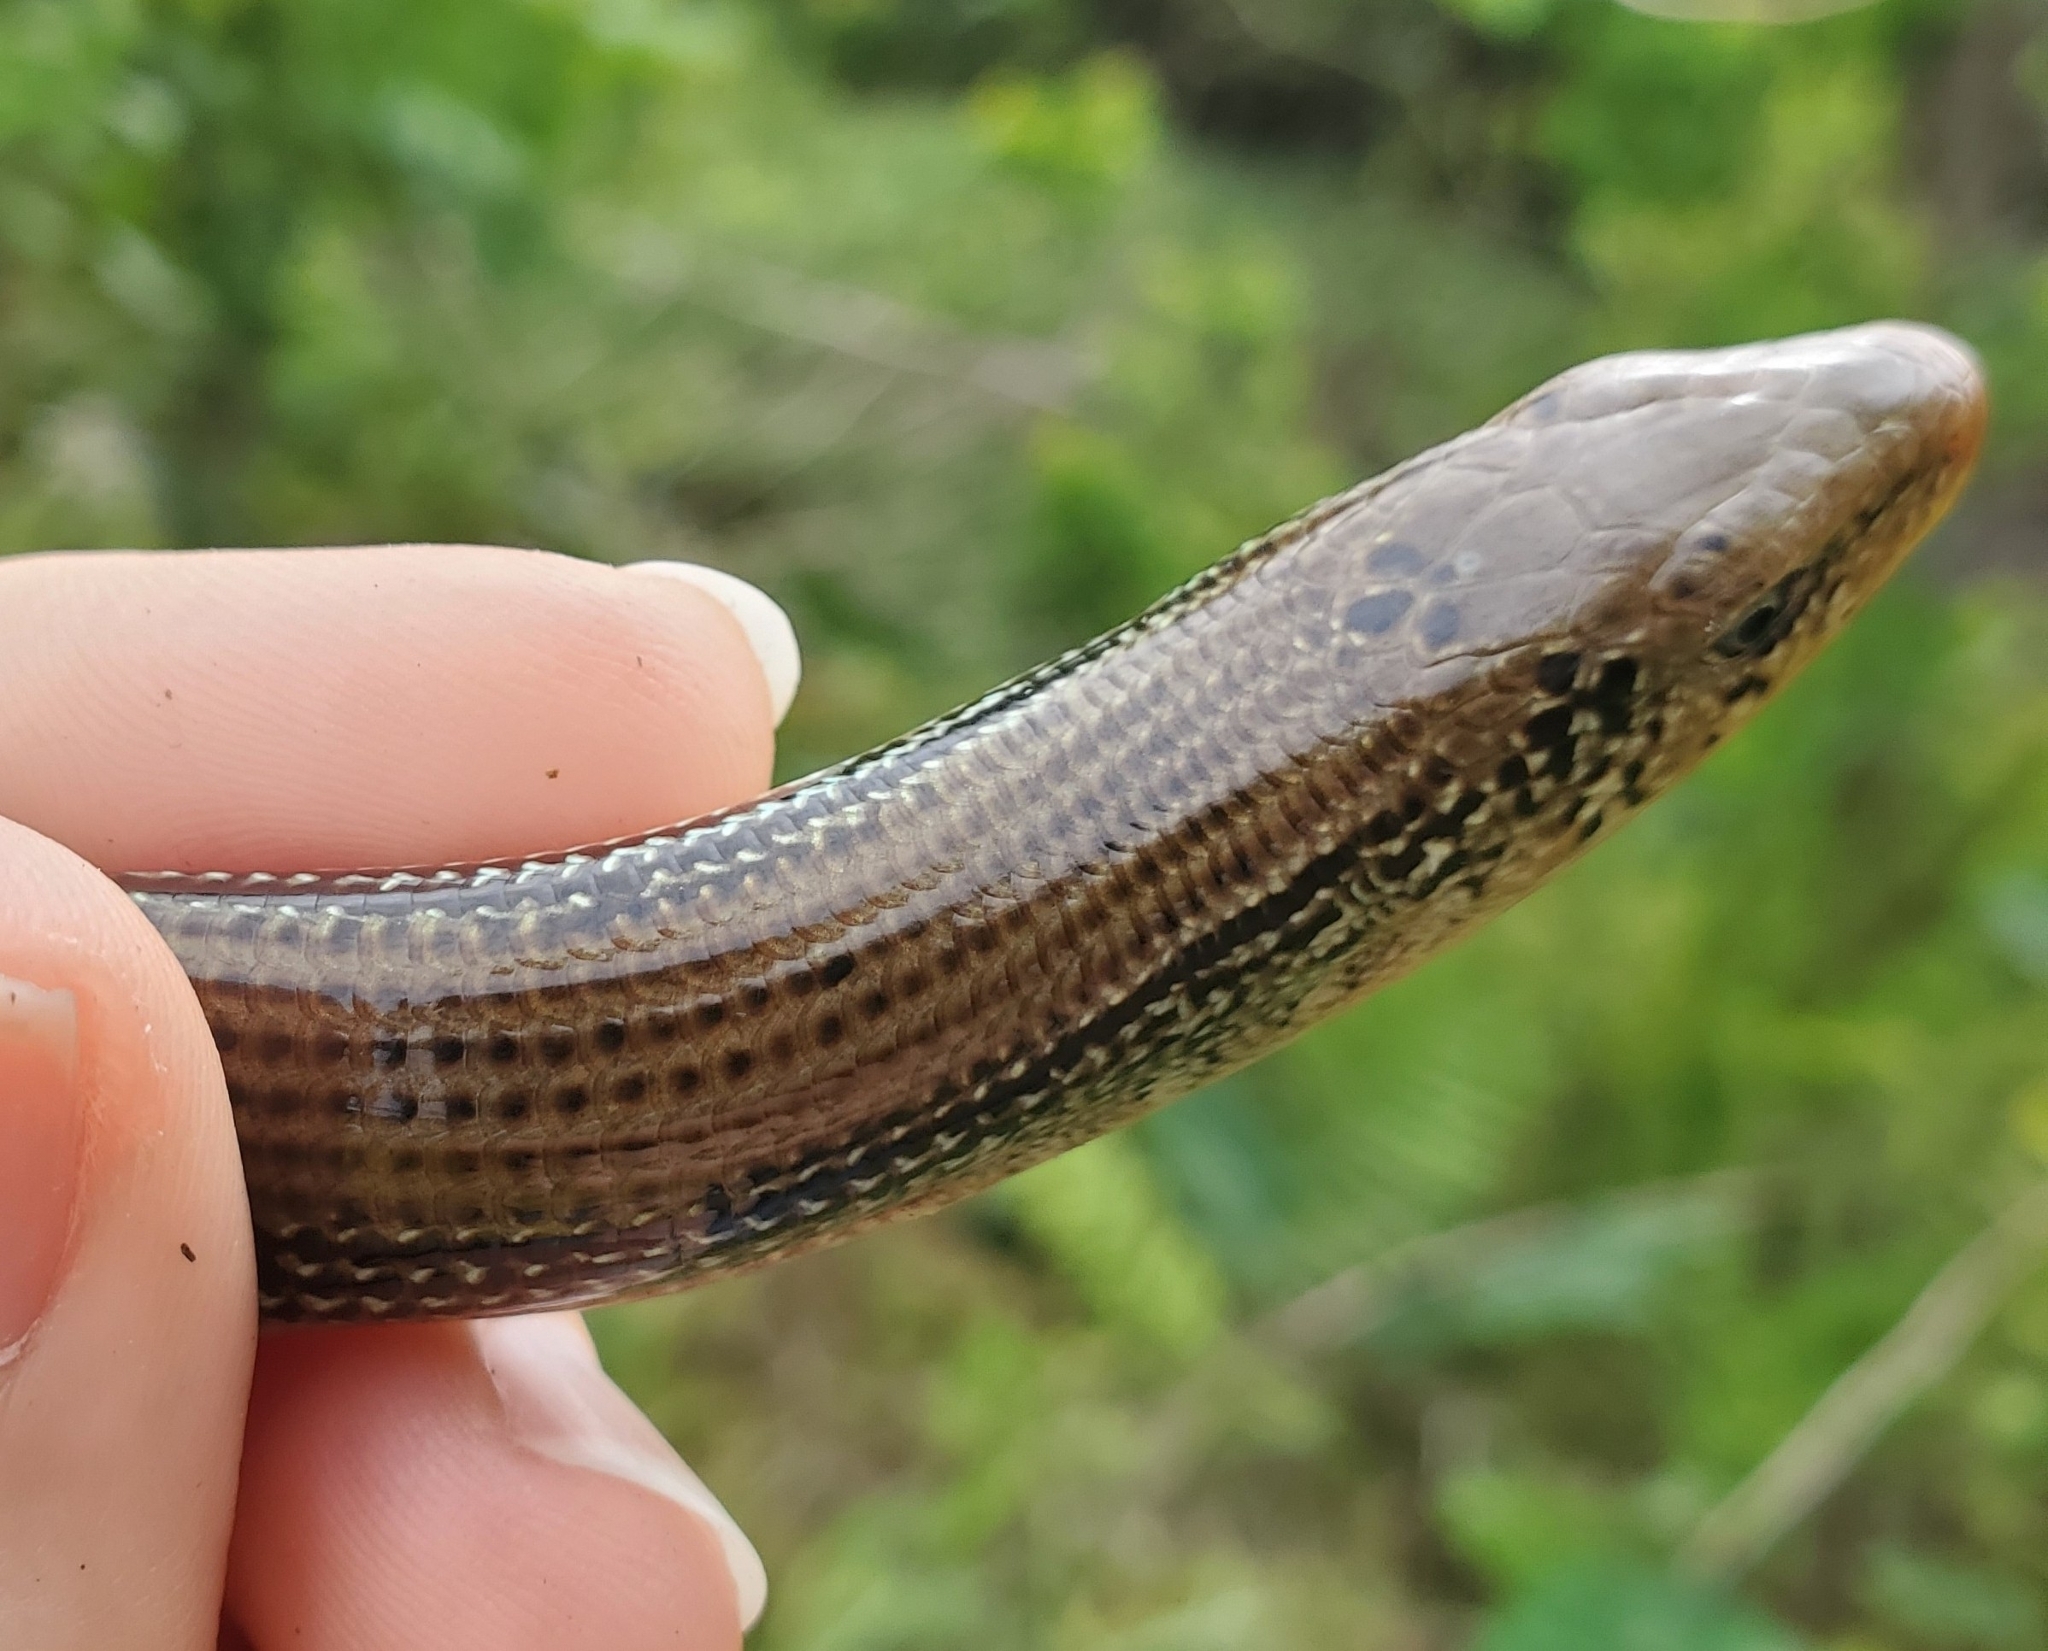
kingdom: Animalia
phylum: Chordata
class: Squamata
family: Anguidae
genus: Ophisaurus
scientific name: Ophisaurus ventralis
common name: Eastern glass lizard
